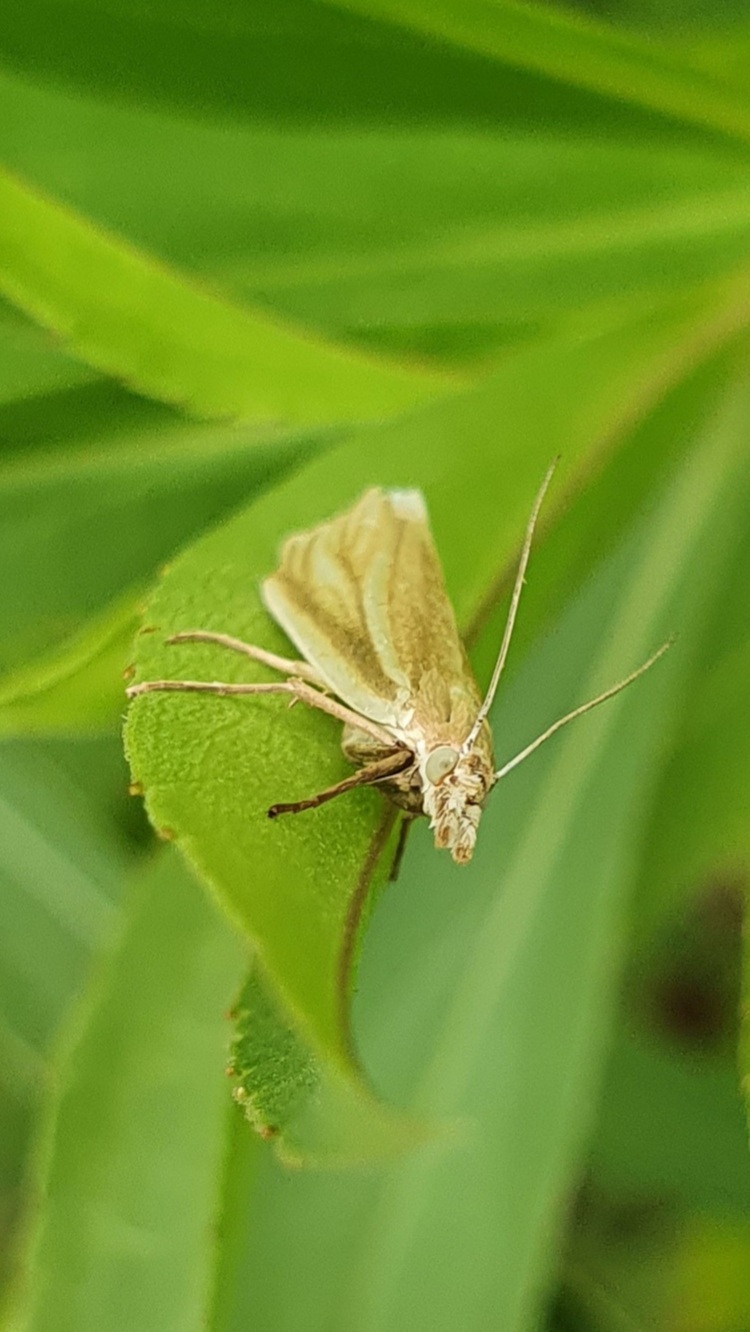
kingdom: Animalia
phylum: Arthropoda
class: Insecta
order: Lepidoptera
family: Crambidae
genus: Crambus
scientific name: Crambus perlellus
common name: Yellow satin veneer
